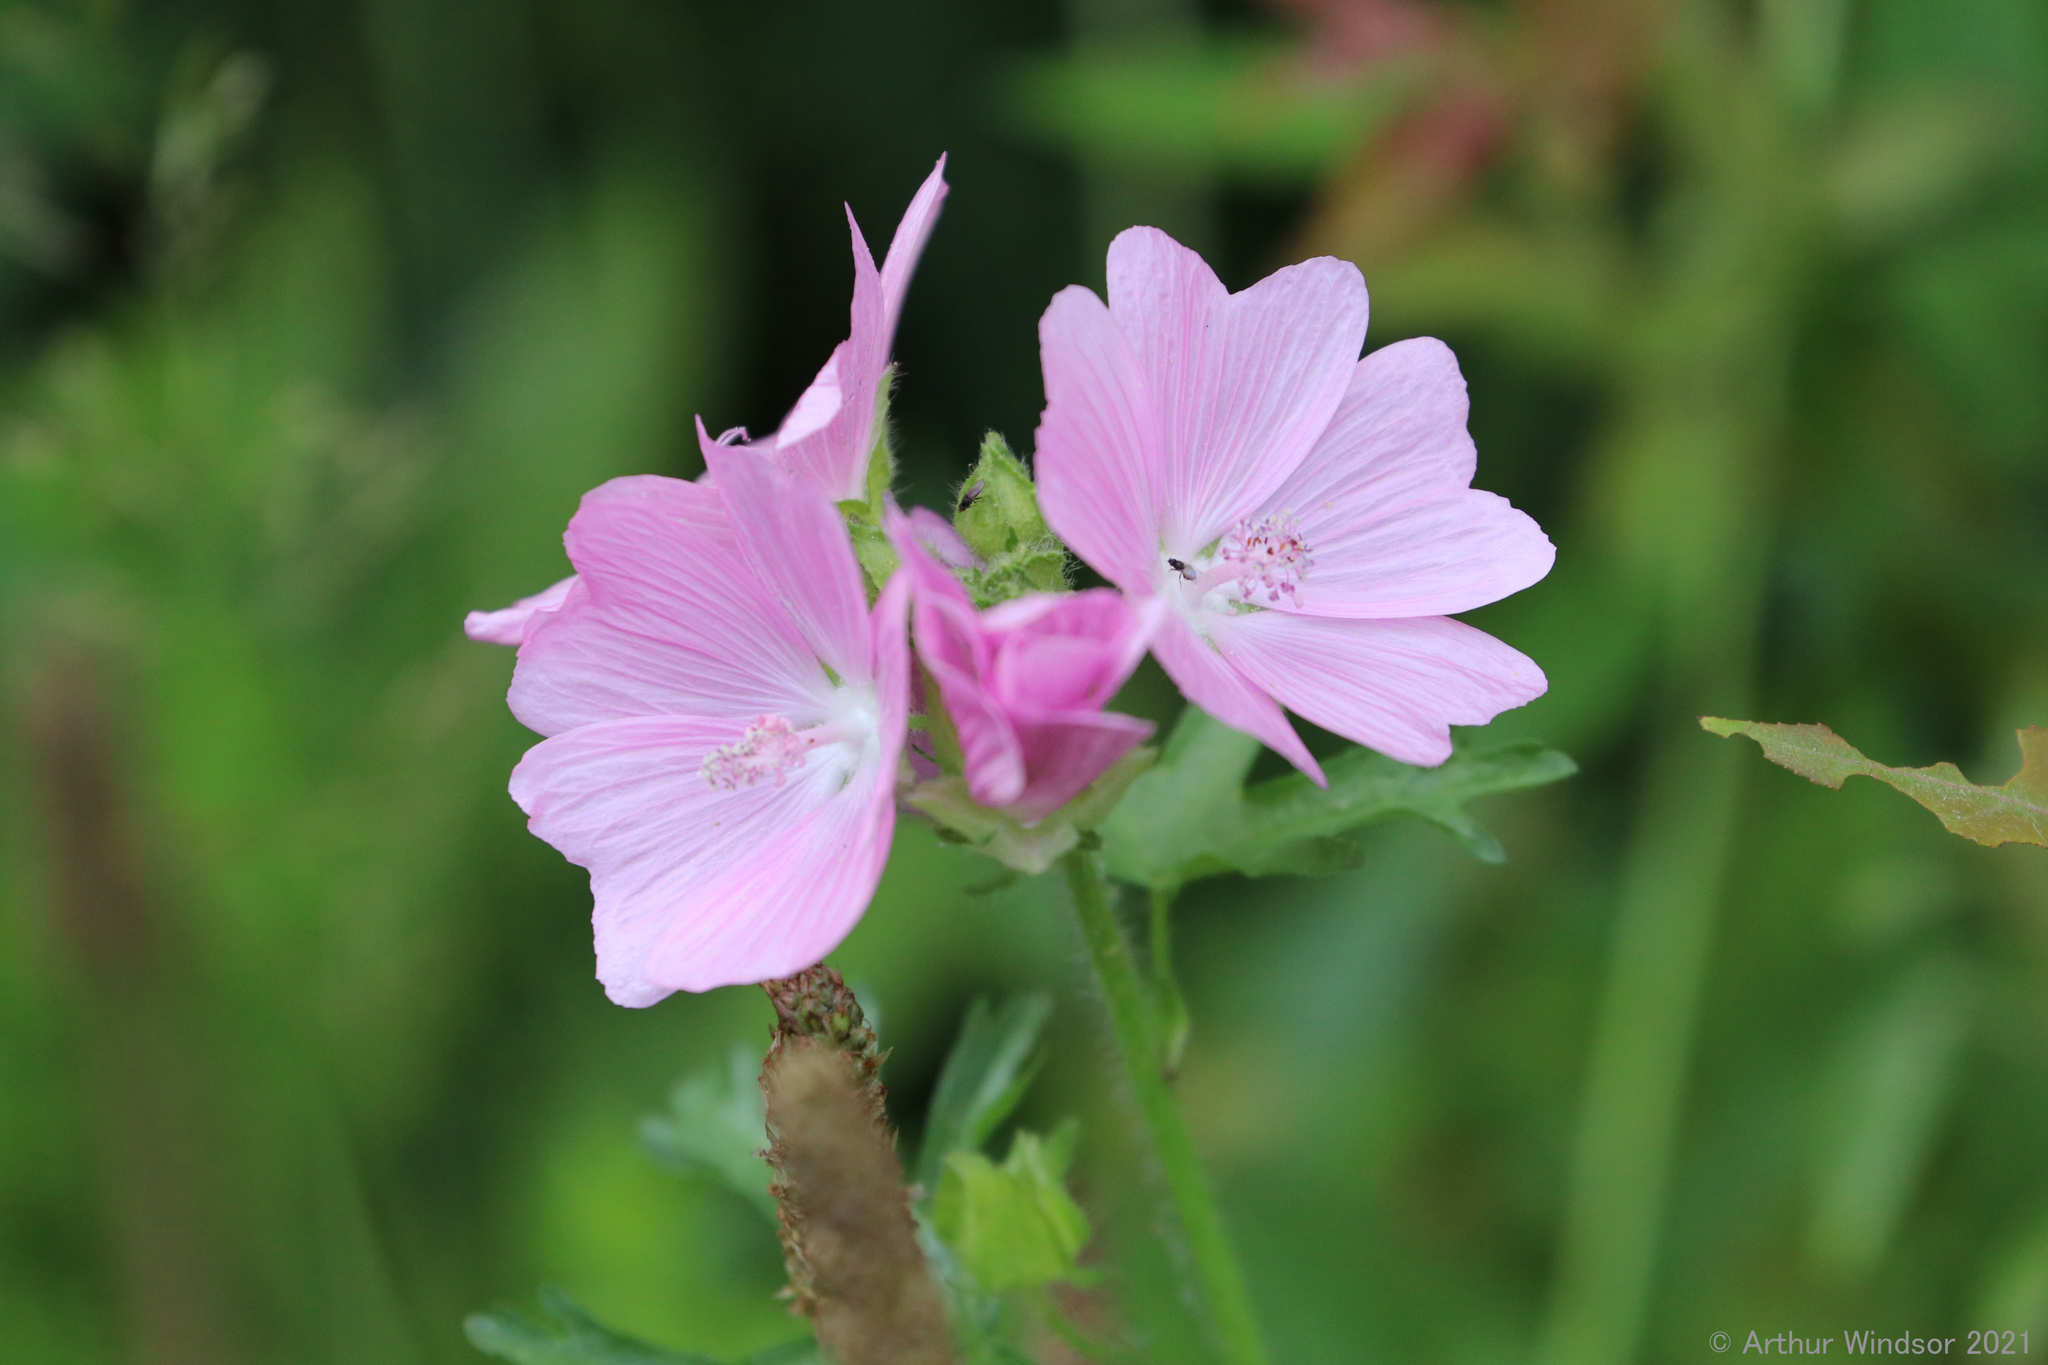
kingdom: Plantae
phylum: Tracheophyta
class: Magnoliopsida
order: Malvales
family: Malvaceae
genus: Malva
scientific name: Malva alcea
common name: Greater musk-mallow
